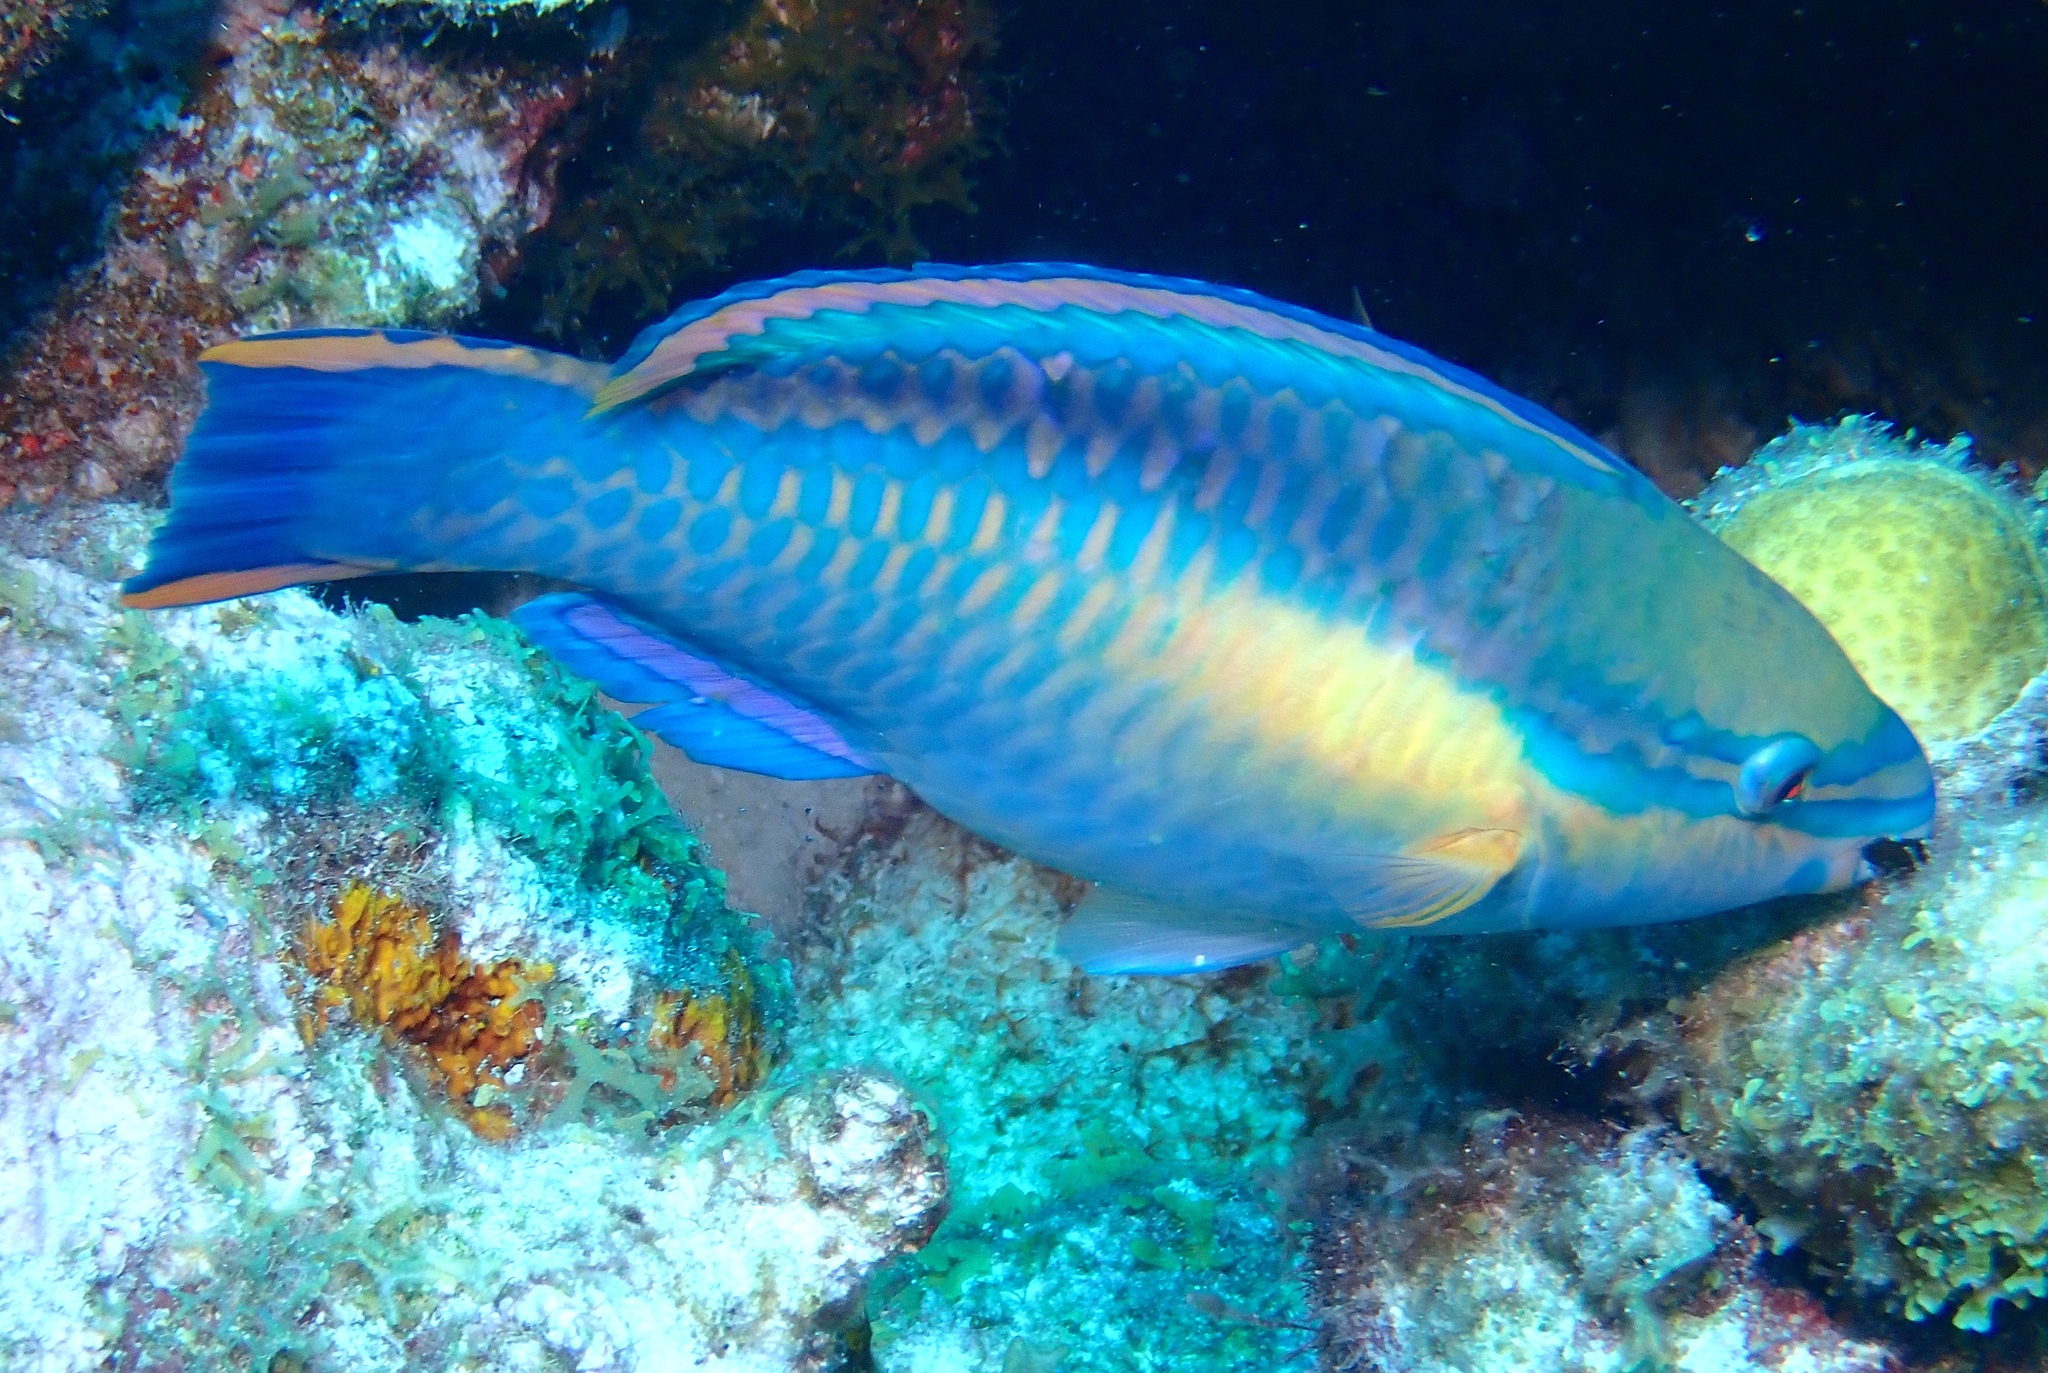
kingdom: Animalia
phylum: Chordata
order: Perciformes
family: Scaridae
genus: Scarus
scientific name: Scarus taeniopterus
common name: Princess parrotfish
